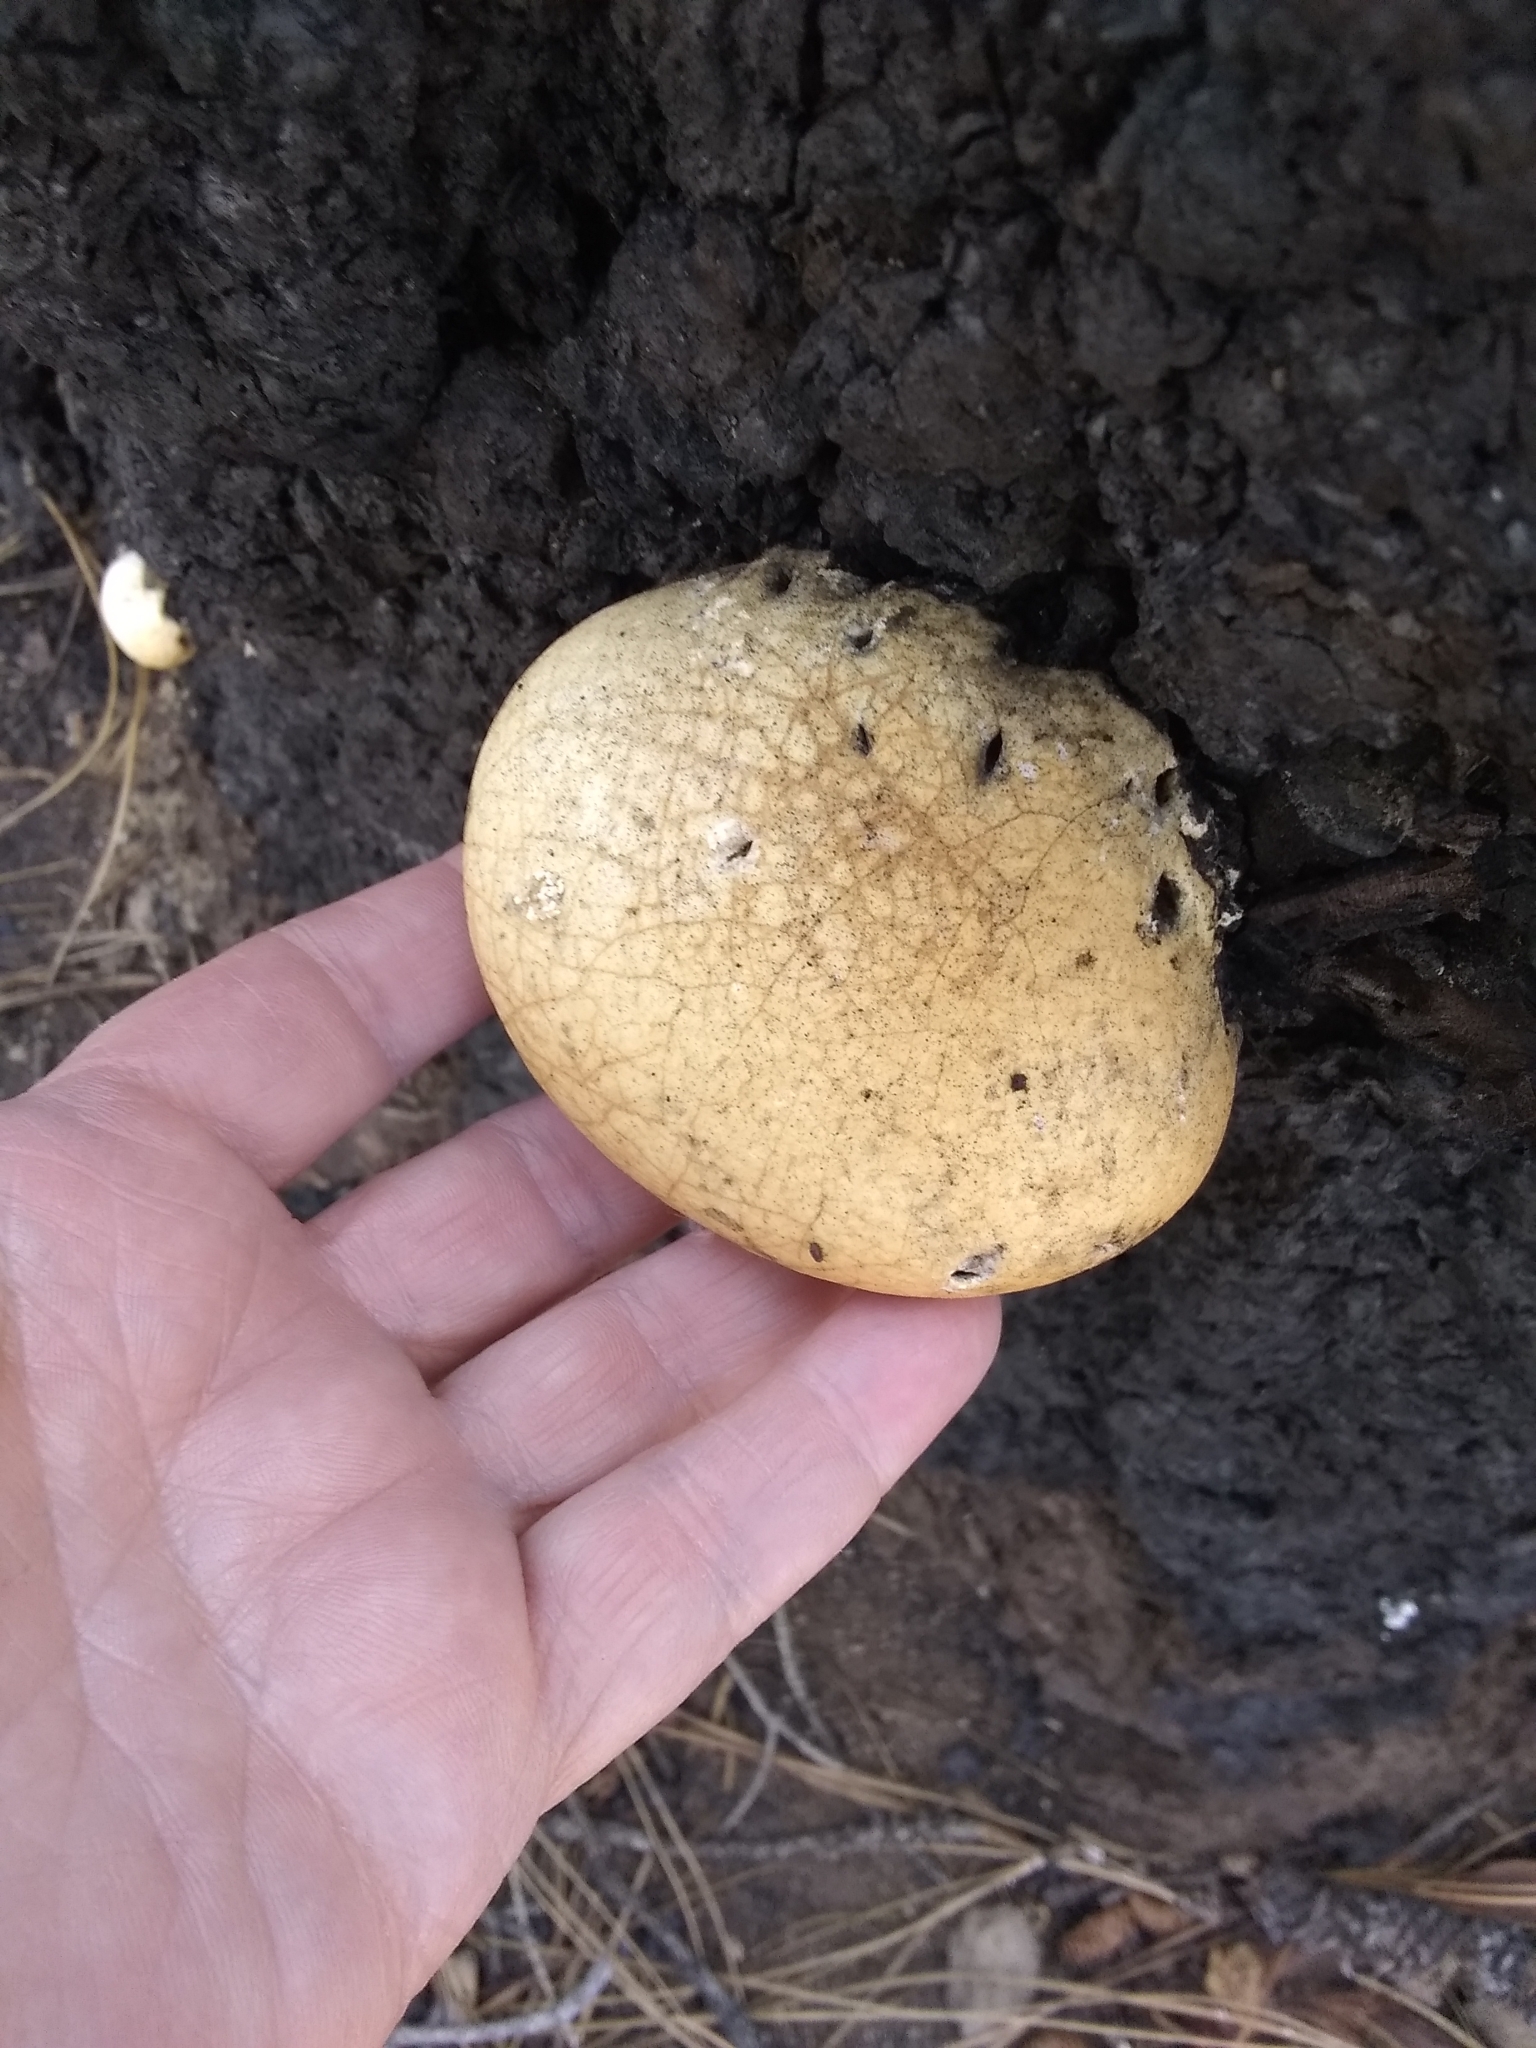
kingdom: Fungi
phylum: Basidiomycota
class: Agaricomycetes
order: Polyporales
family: Polyporaceae
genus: Cryptoporus
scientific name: Cryptoporus volvatus
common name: Veiled polypore
